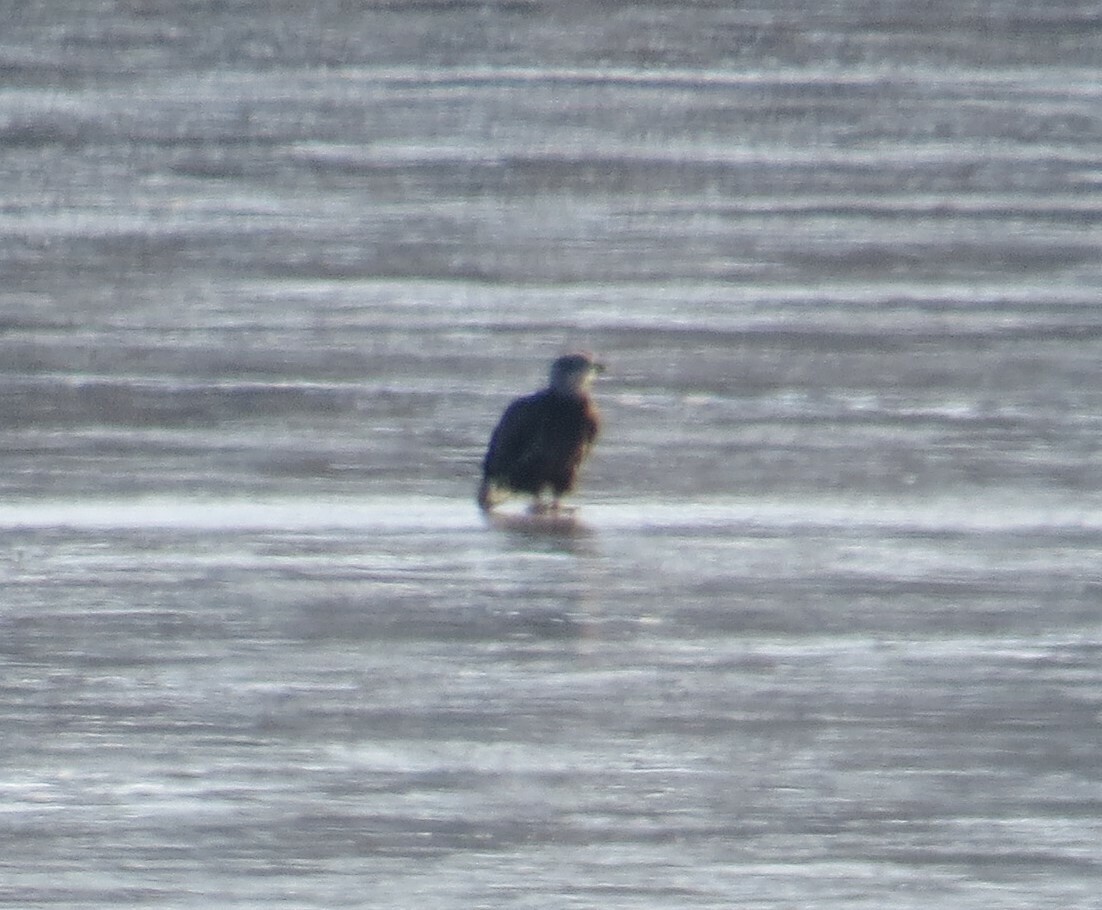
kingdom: Animalia
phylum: Chordata
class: Aves
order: Accipitriformes
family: Accipitridae
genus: Haliaeetus
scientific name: Haliaeetus leucocephalus
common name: Bald eagle
